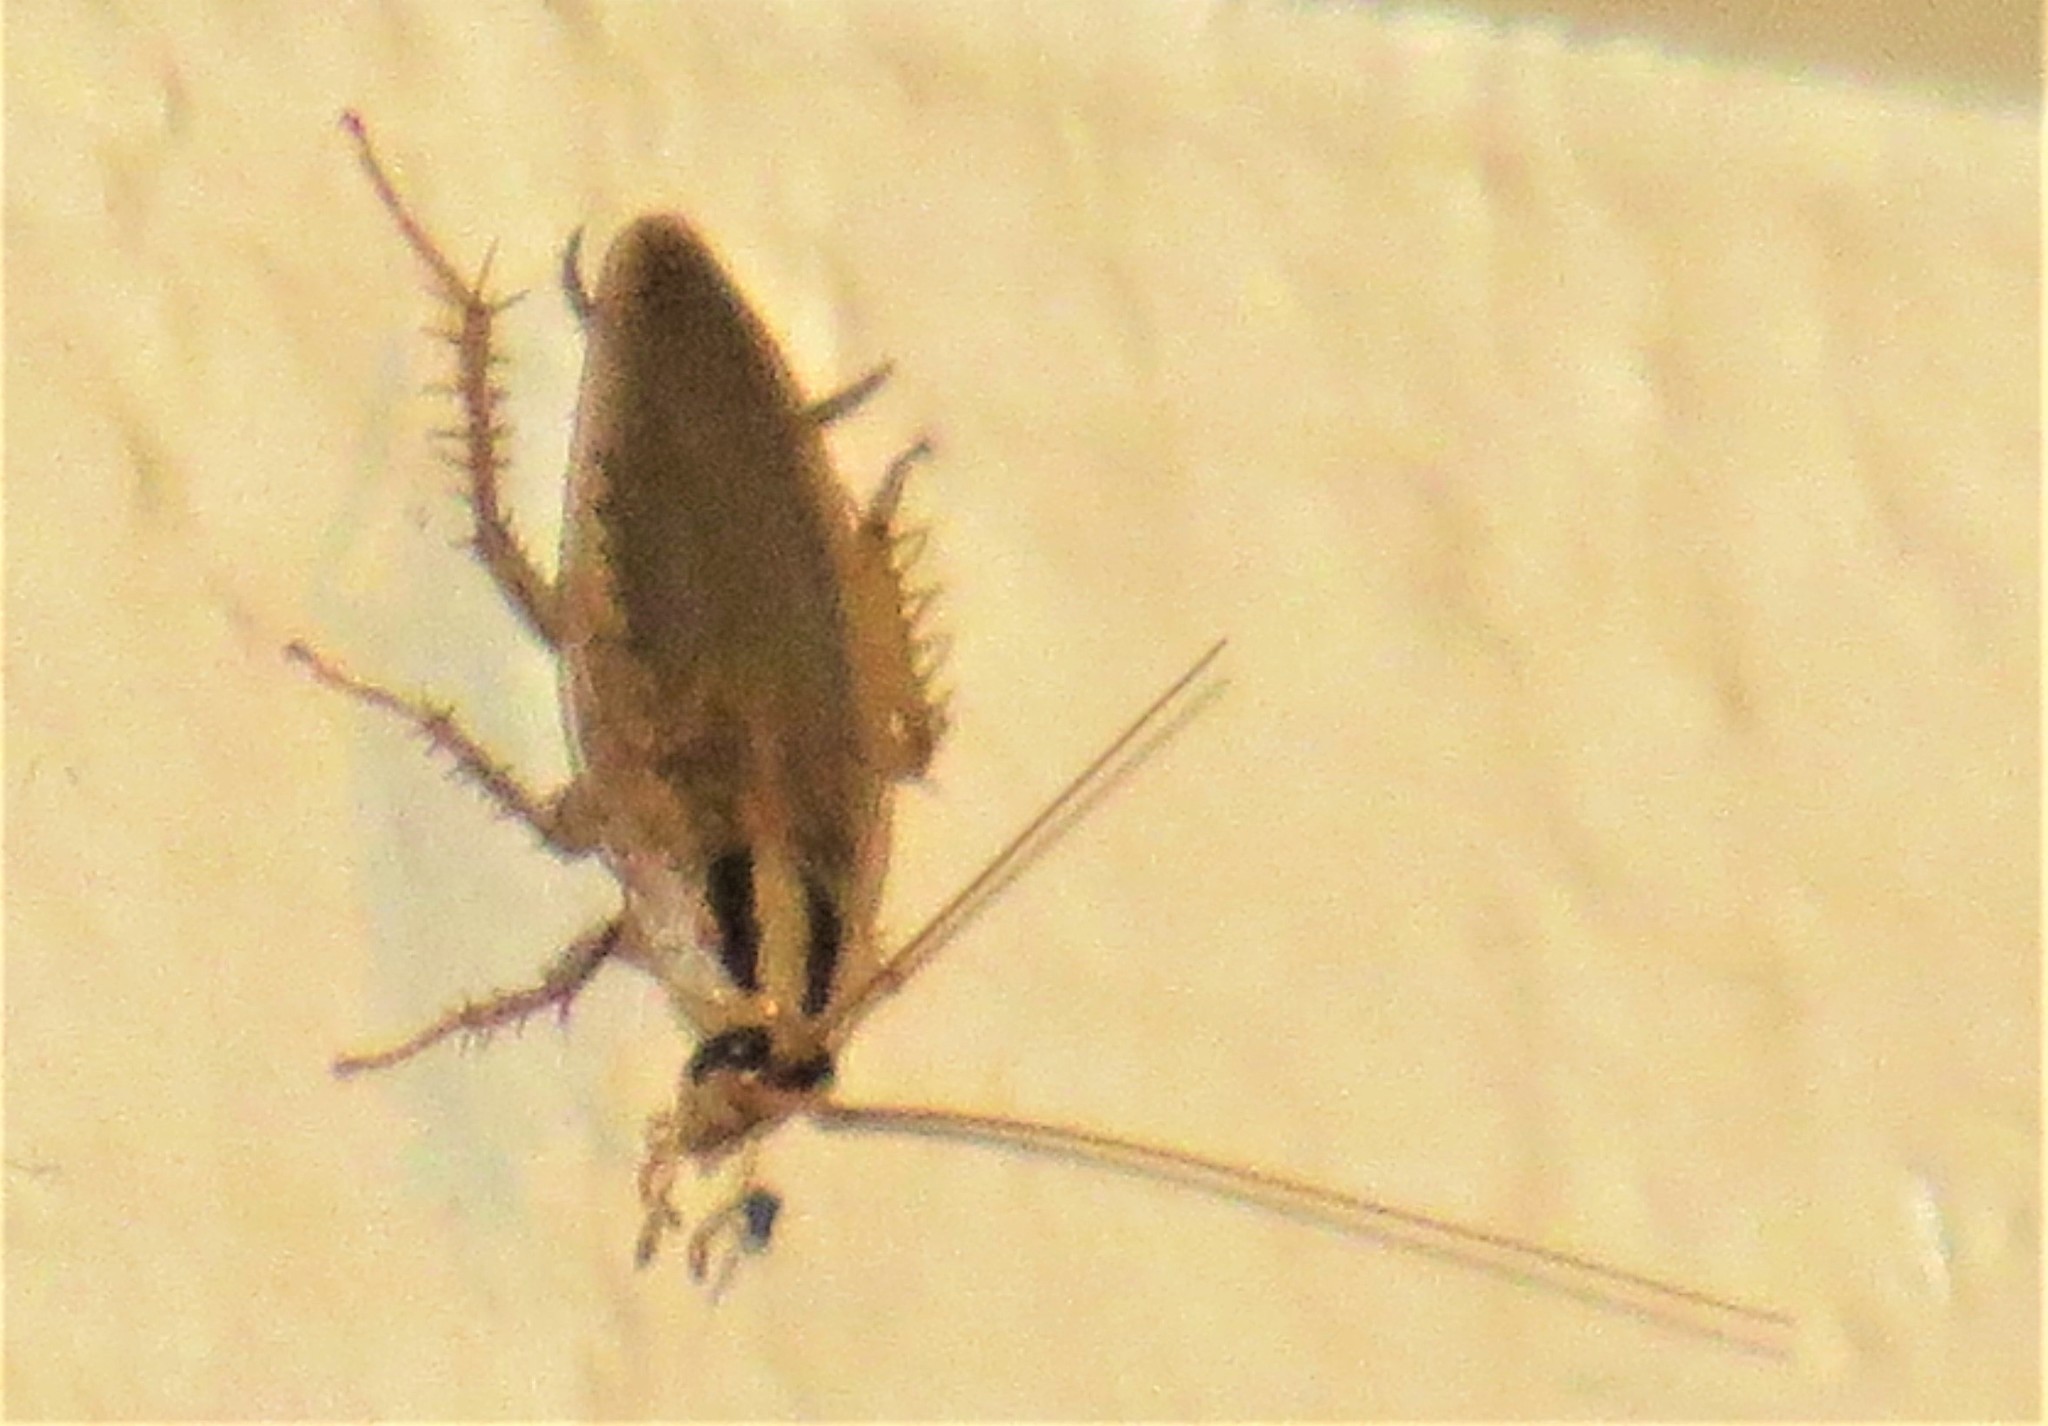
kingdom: Animalia
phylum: Arthropoda
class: Insecta
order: Blattodea
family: Ectobiidae
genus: Blattella
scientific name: Blattella asahinai
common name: Asian cockroach
